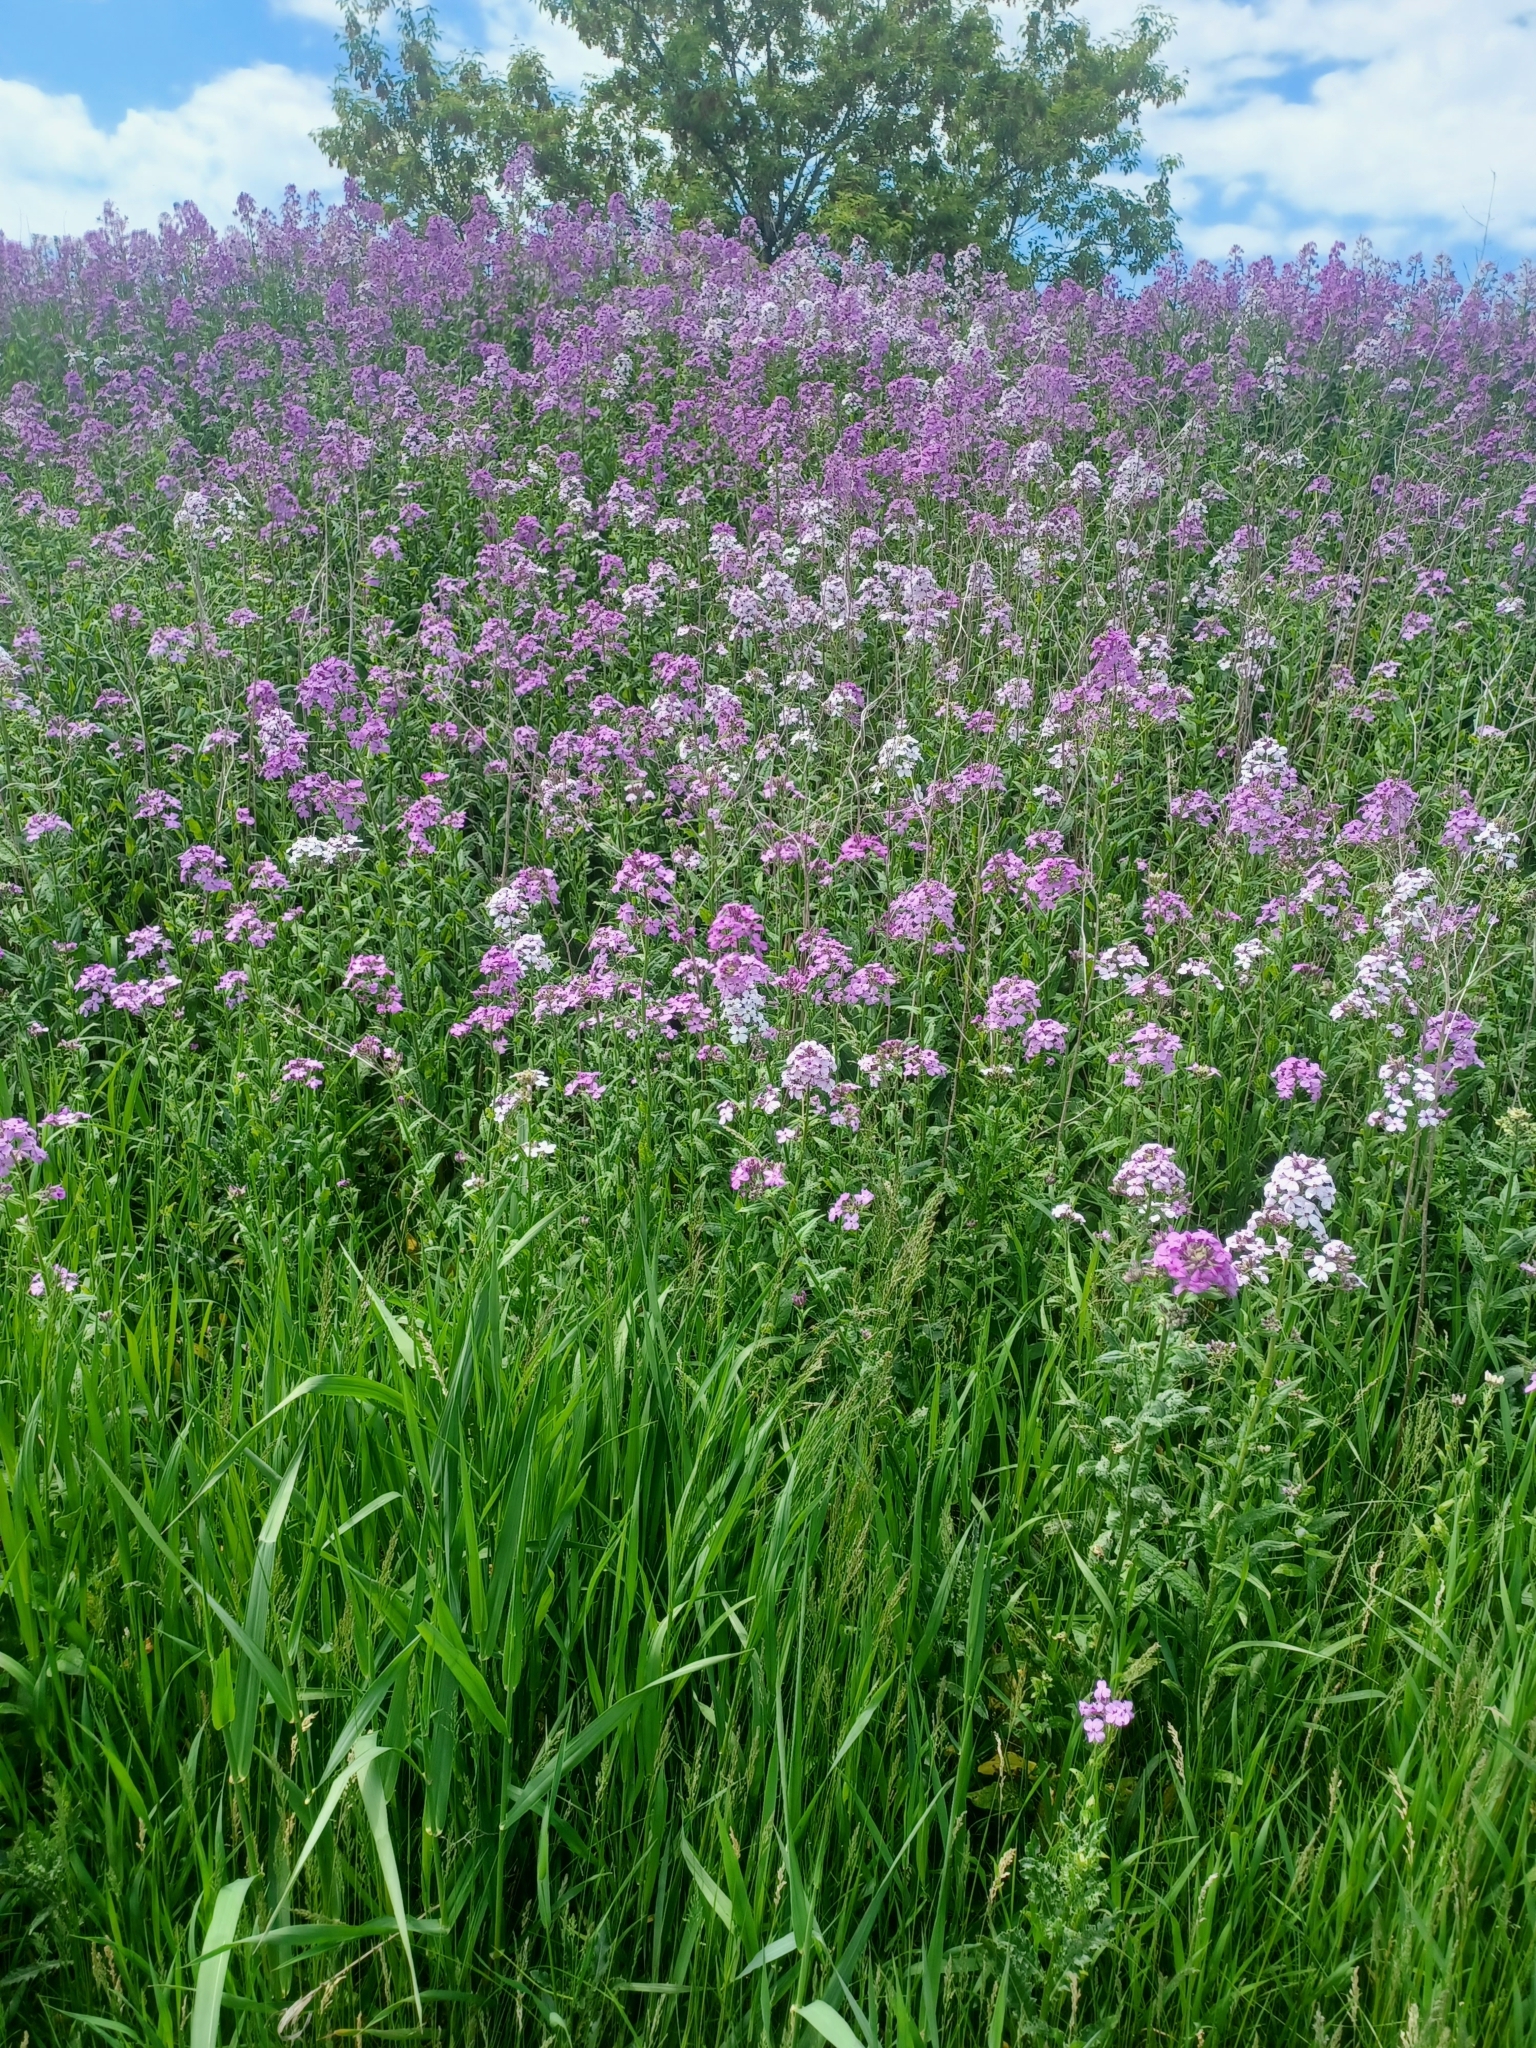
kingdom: Plantae
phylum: Tracheophyta
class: Magnoliopsida
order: Brassicales
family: Brassicaceae
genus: Hesperis
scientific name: Hesperis matronalis
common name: Dame's-violet
